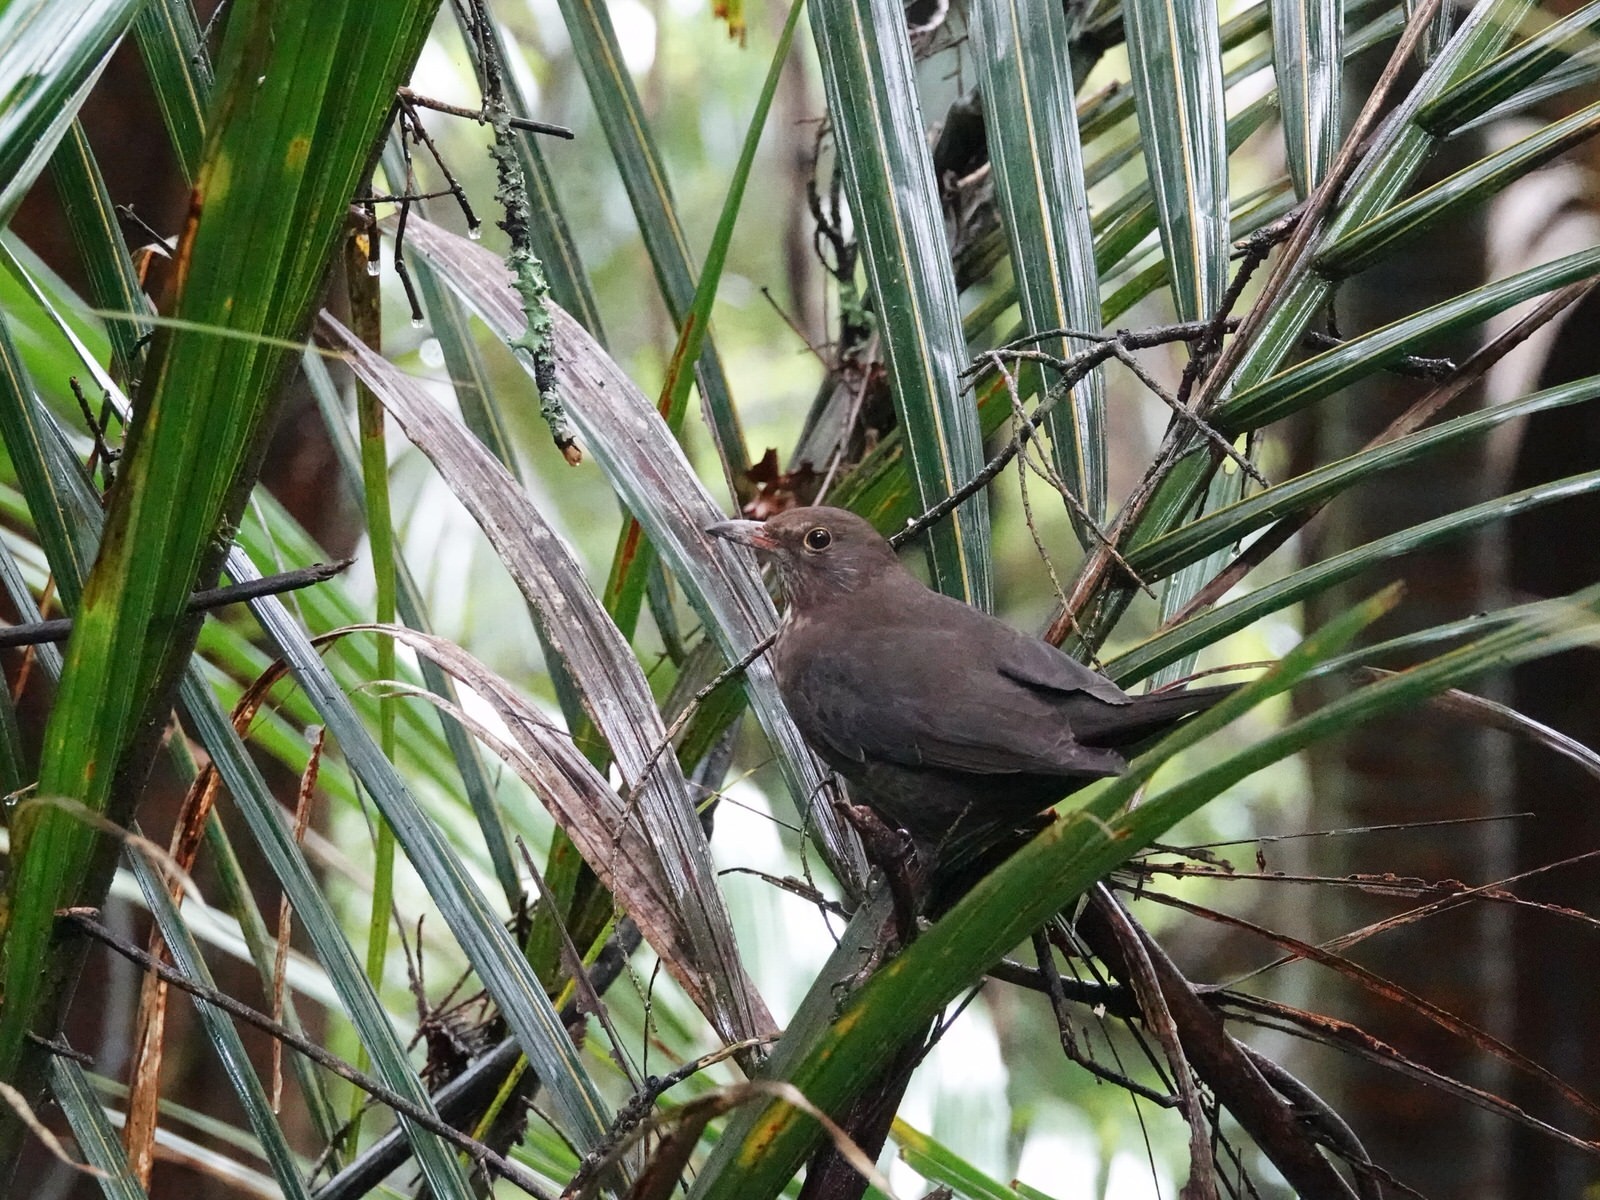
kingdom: Animalia
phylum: Chordata
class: Aves
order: Passeriformes
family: Turdidae
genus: Turdus
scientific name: Turdus merula
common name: Common blackbird
